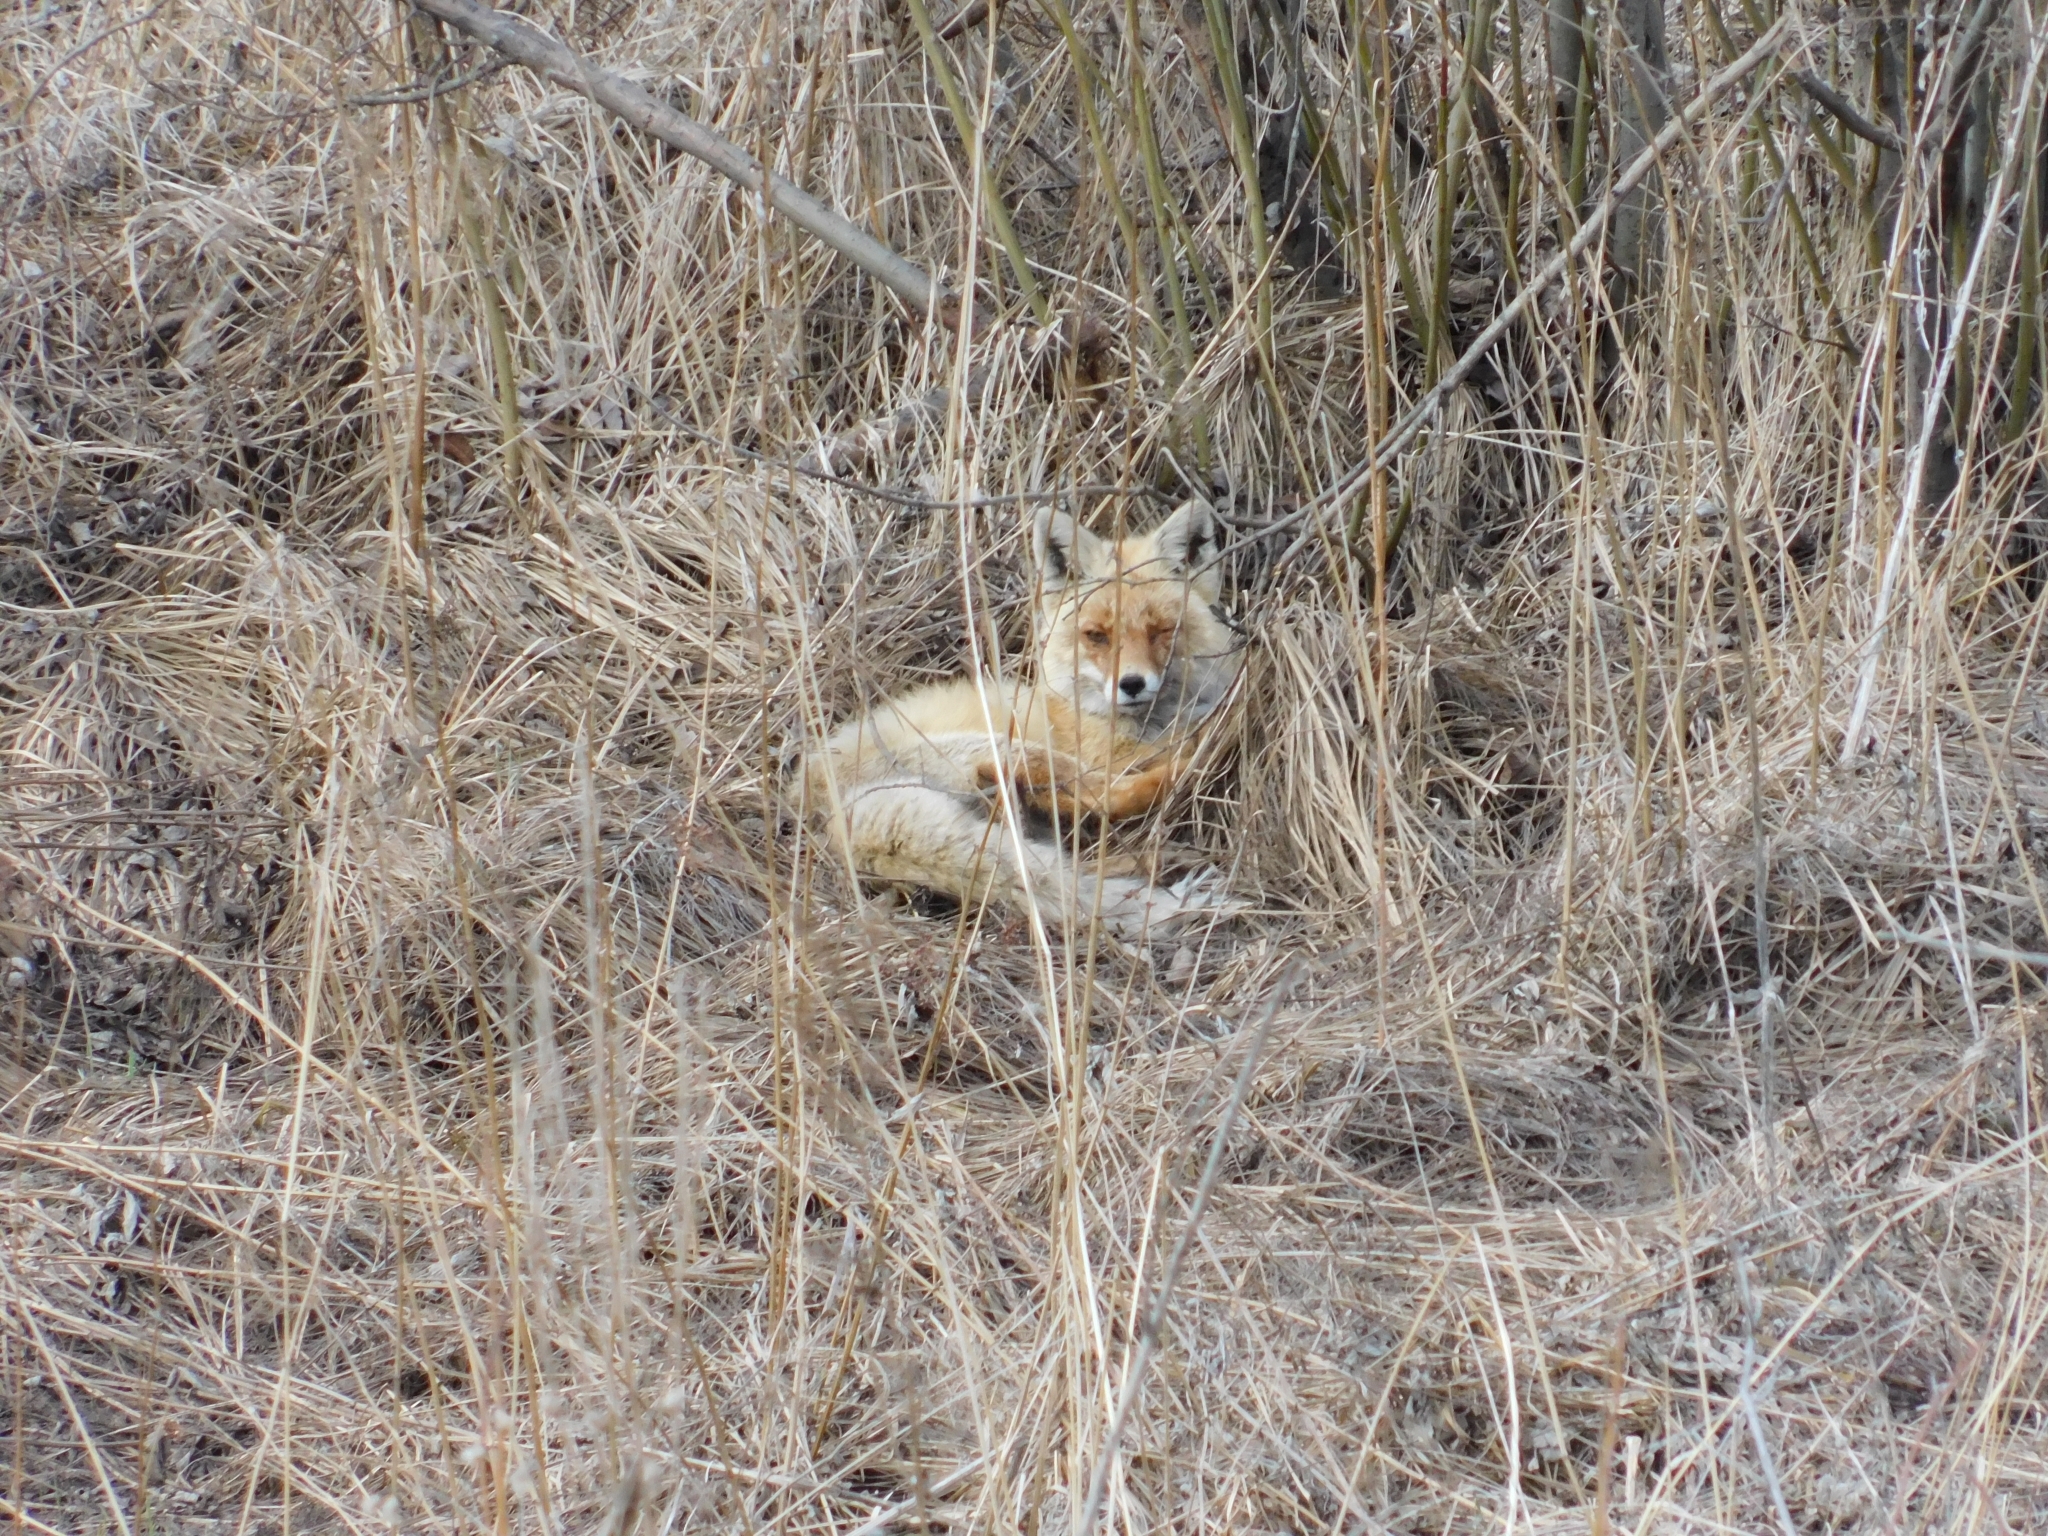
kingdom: Animalia
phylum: Chordata
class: Mammalia
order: Carnivora
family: Canidae
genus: Vulpes
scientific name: Vulpes vulpes
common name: Red fox
